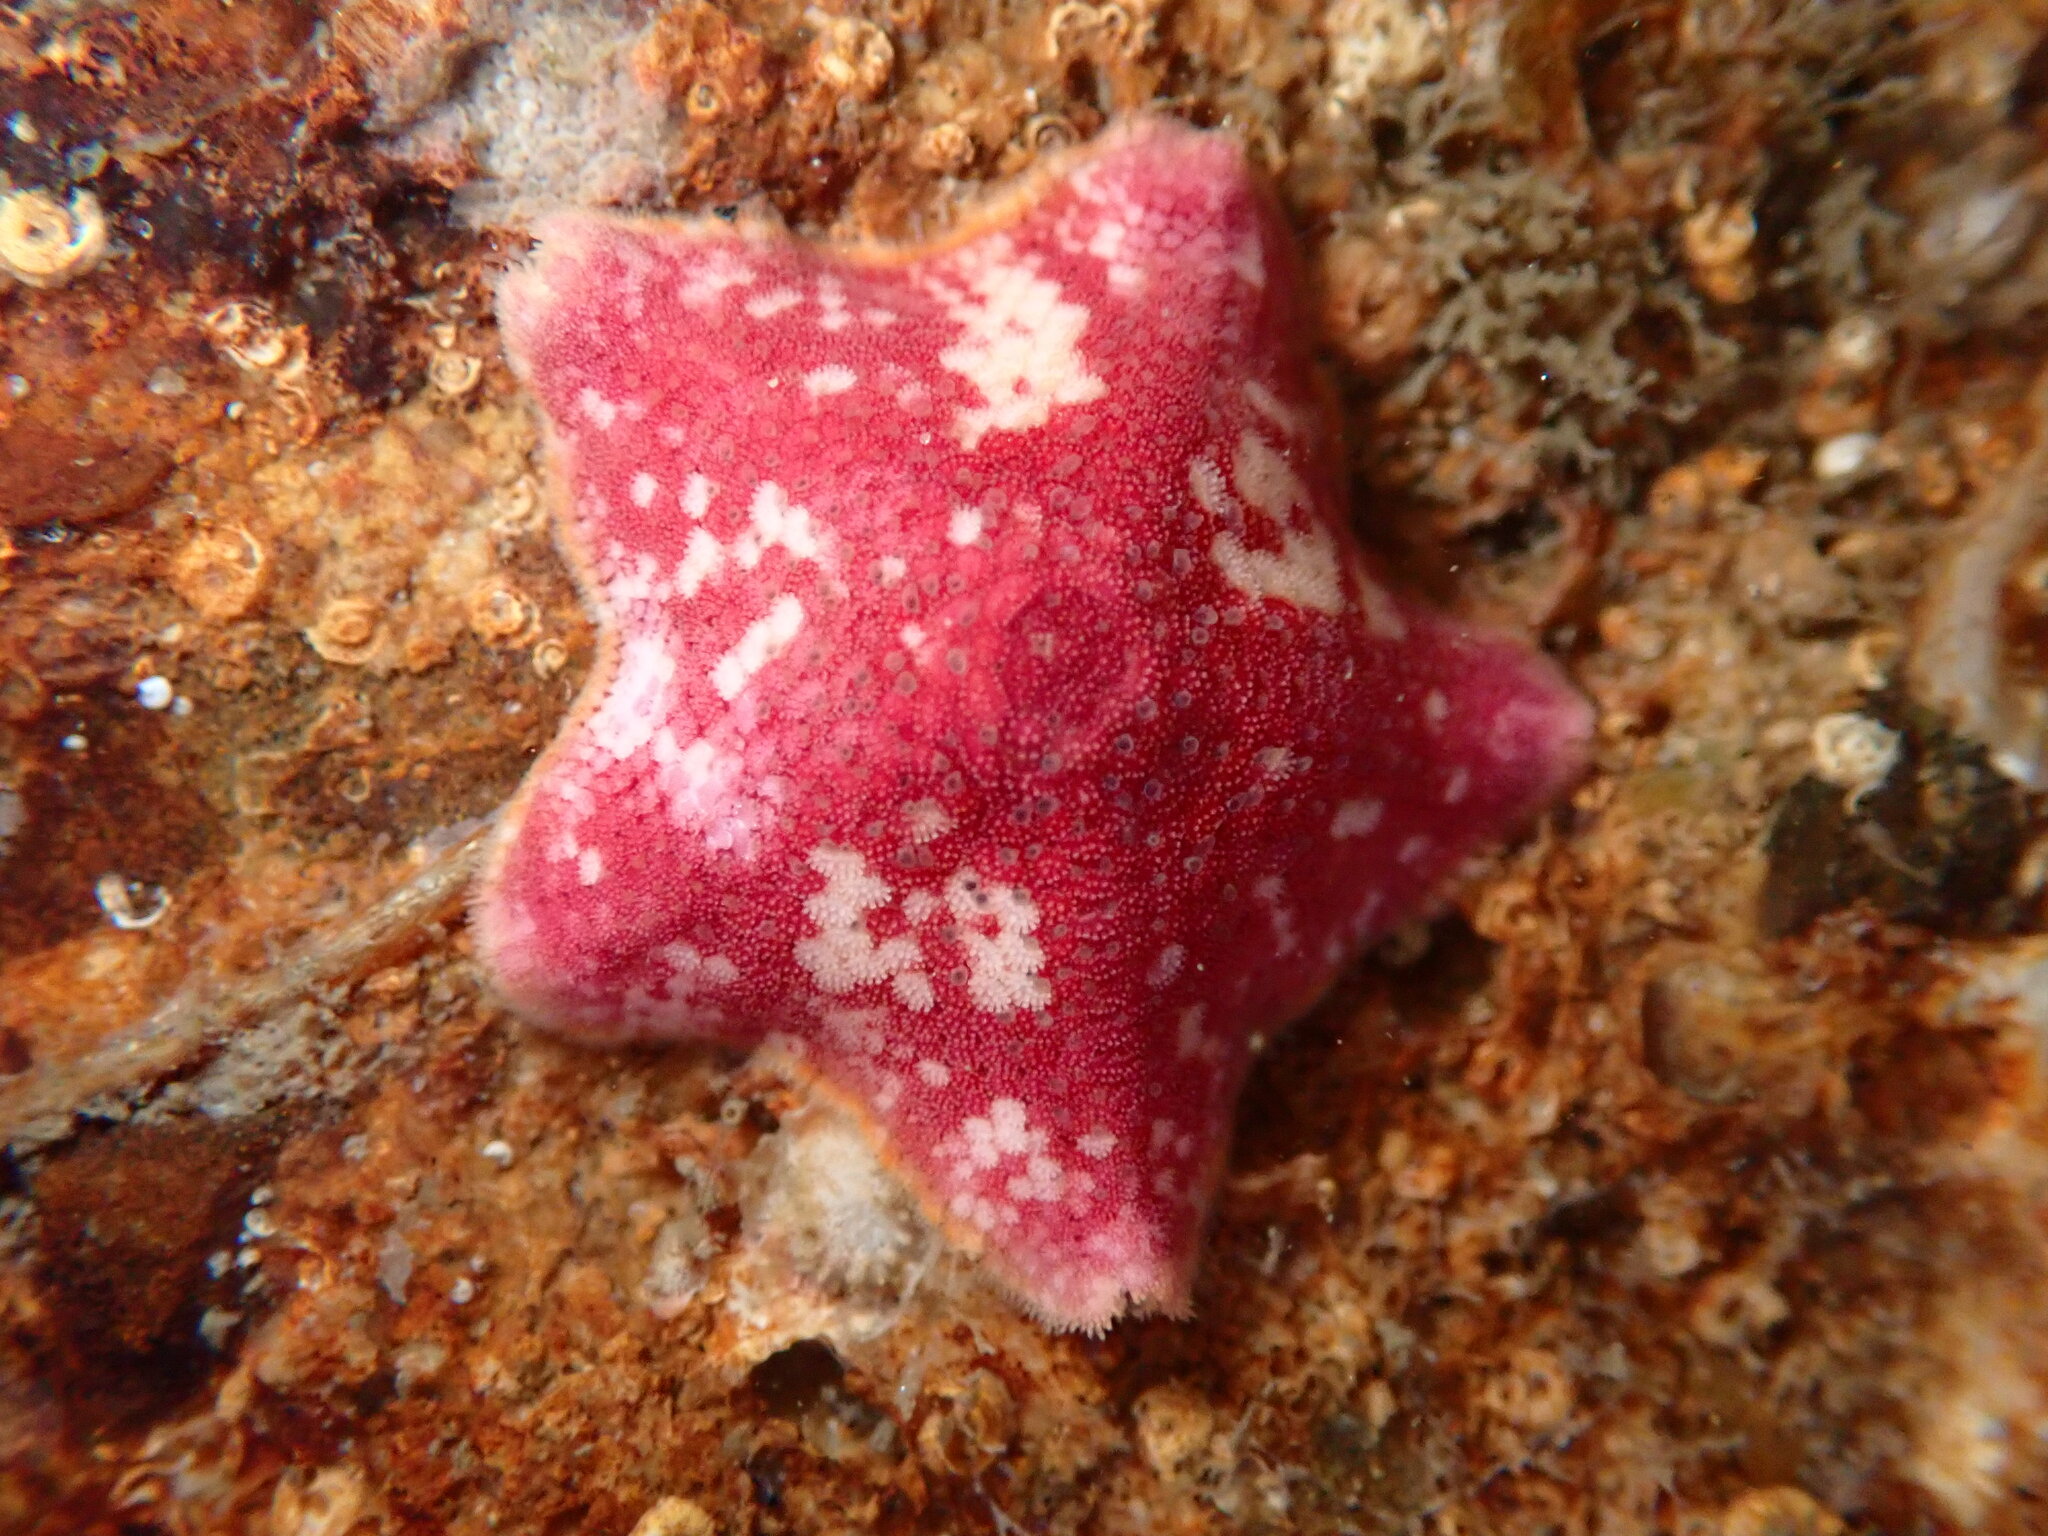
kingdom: Animalia
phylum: Echinodermata
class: Asteroidea
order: Valvatida
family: Asterinidae
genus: Patiria
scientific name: Patiria miniata
